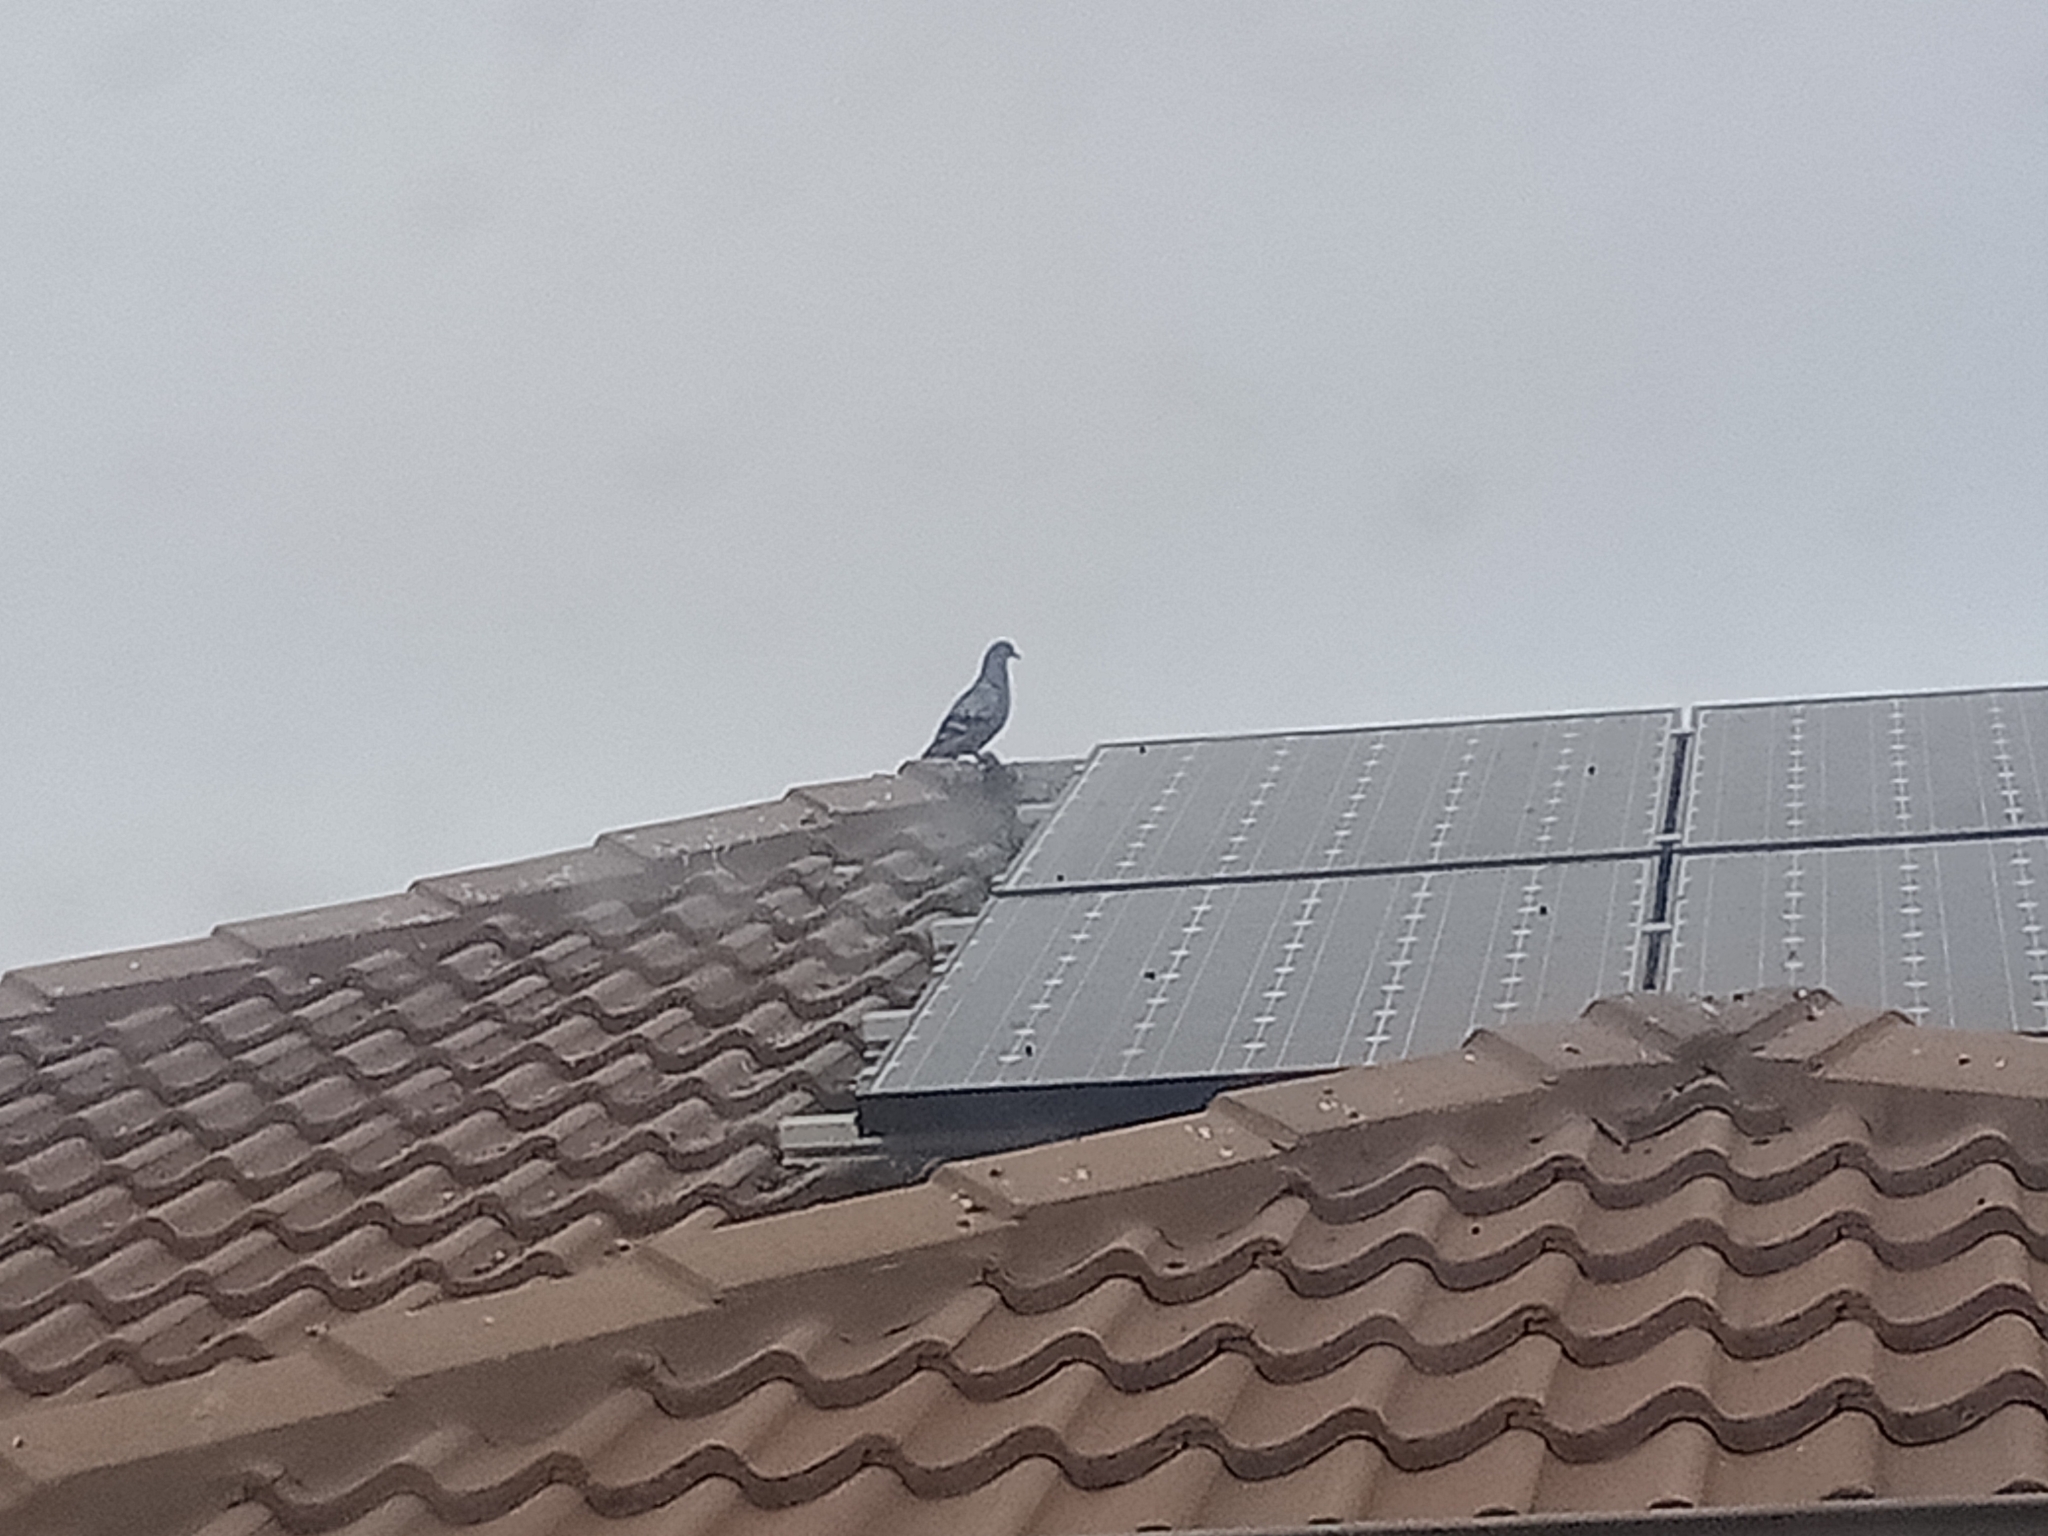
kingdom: Animalia
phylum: Chordata
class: Aves
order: Columbiformes
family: Columbidae
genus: Columba
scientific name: Columba livia
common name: Rock pigeon
